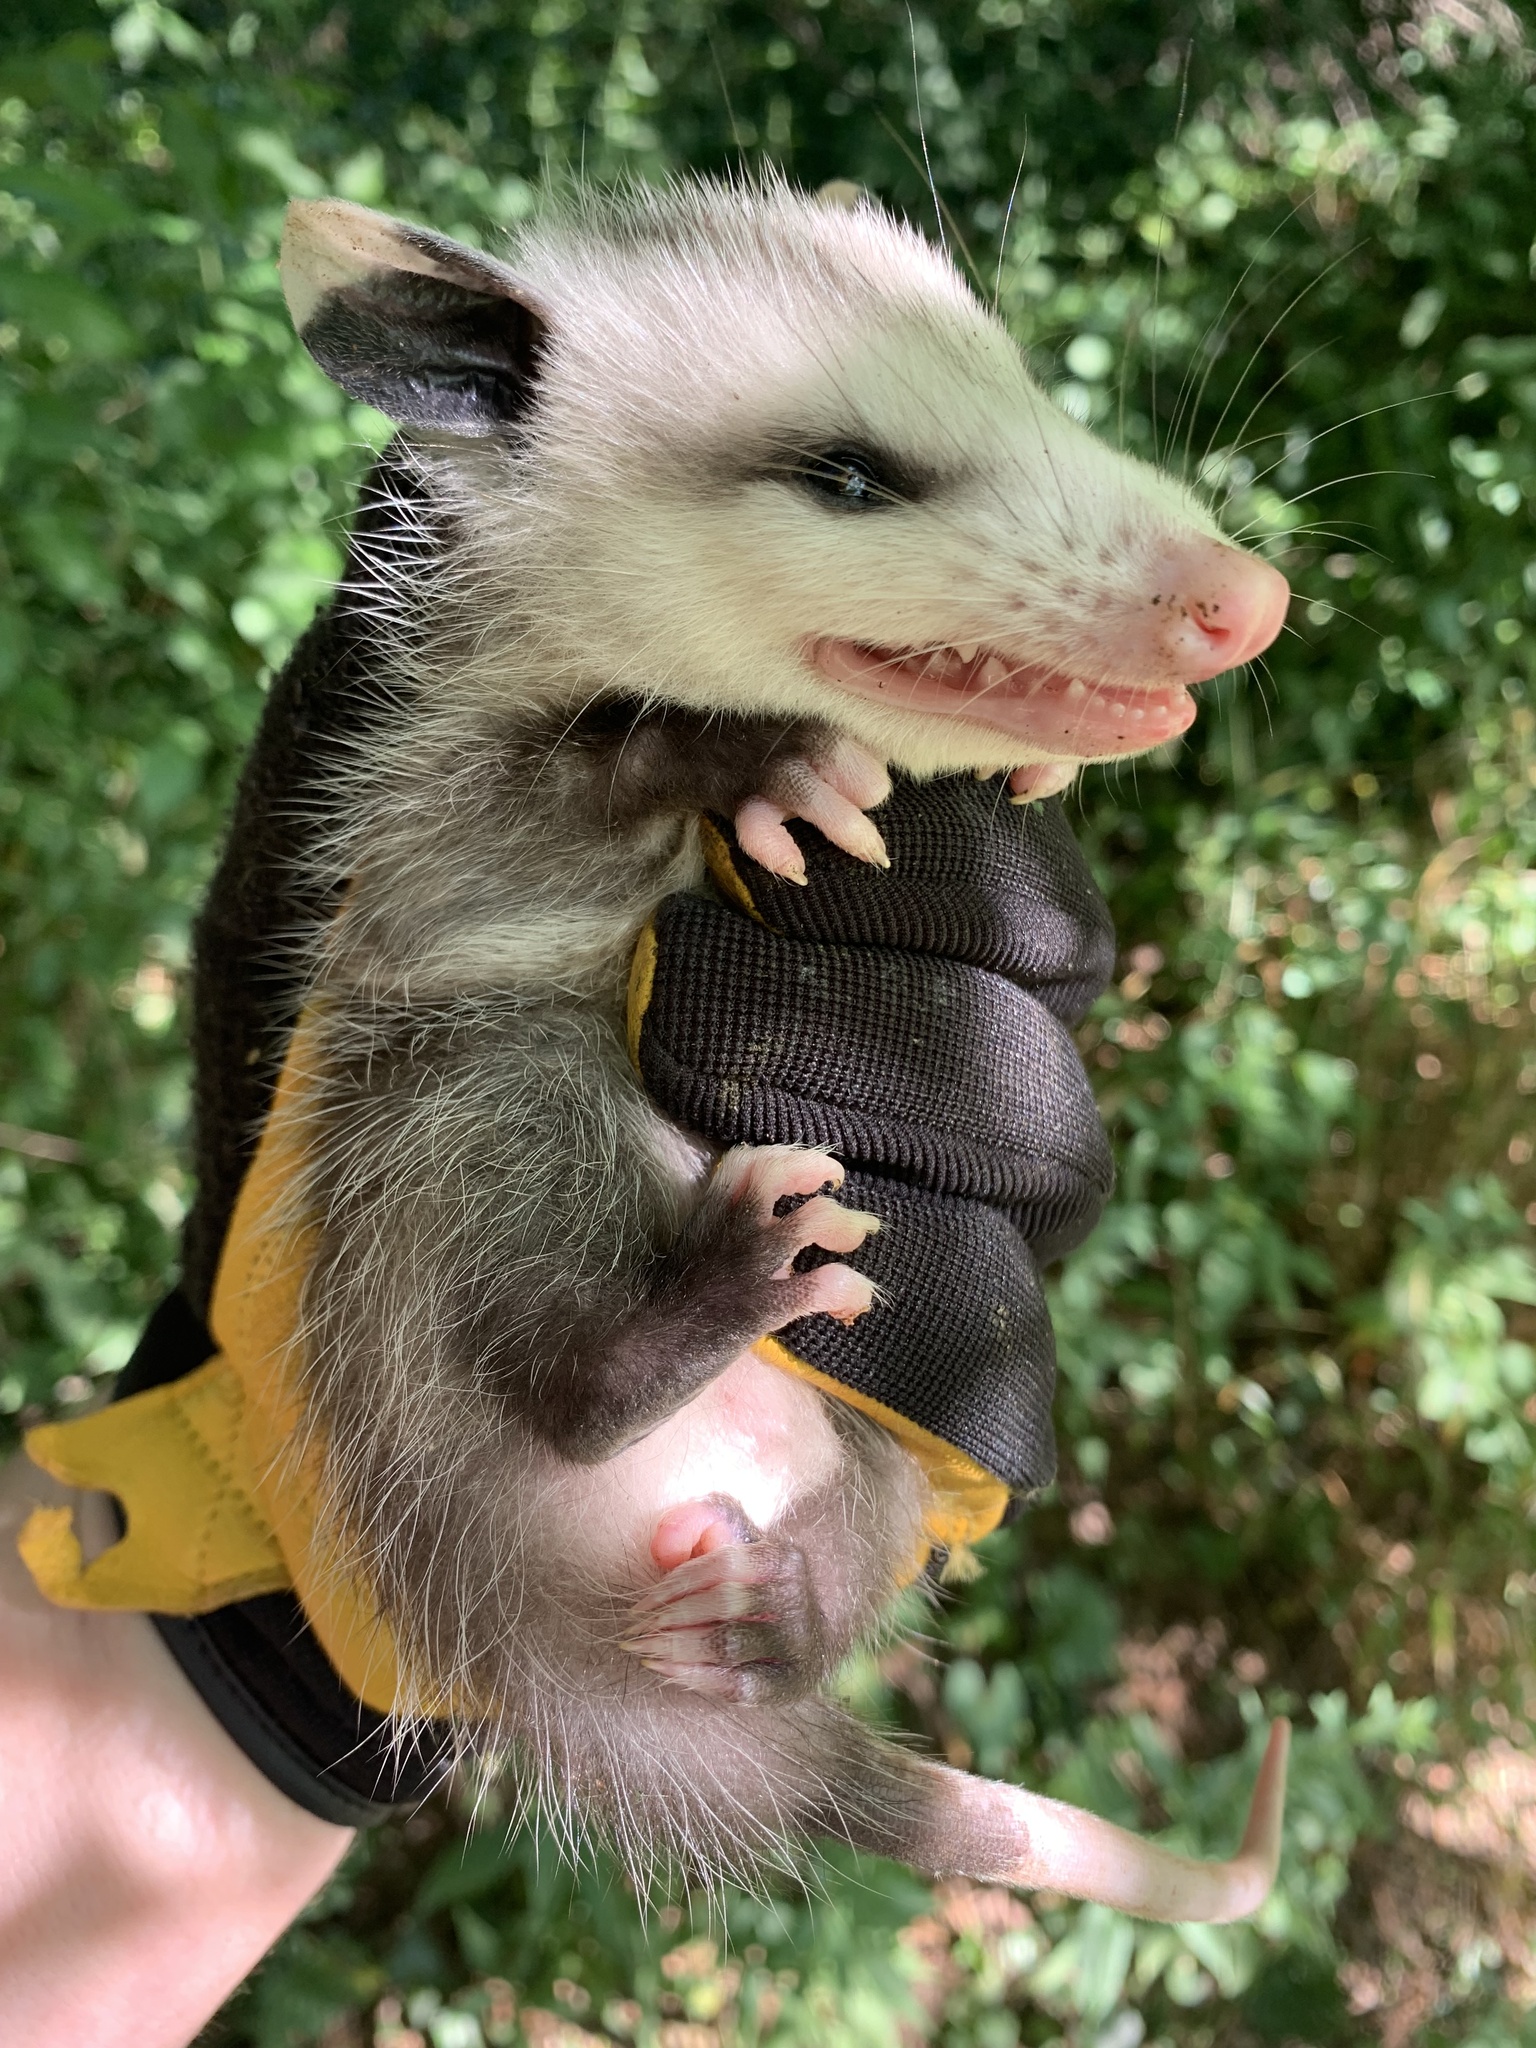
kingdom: Animalia
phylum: Chordata
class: Mammalia
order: Didelphimorphia
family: Didelphidae
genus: Didelphis
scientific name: Didelphis virginiana
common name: Virginia opossum
